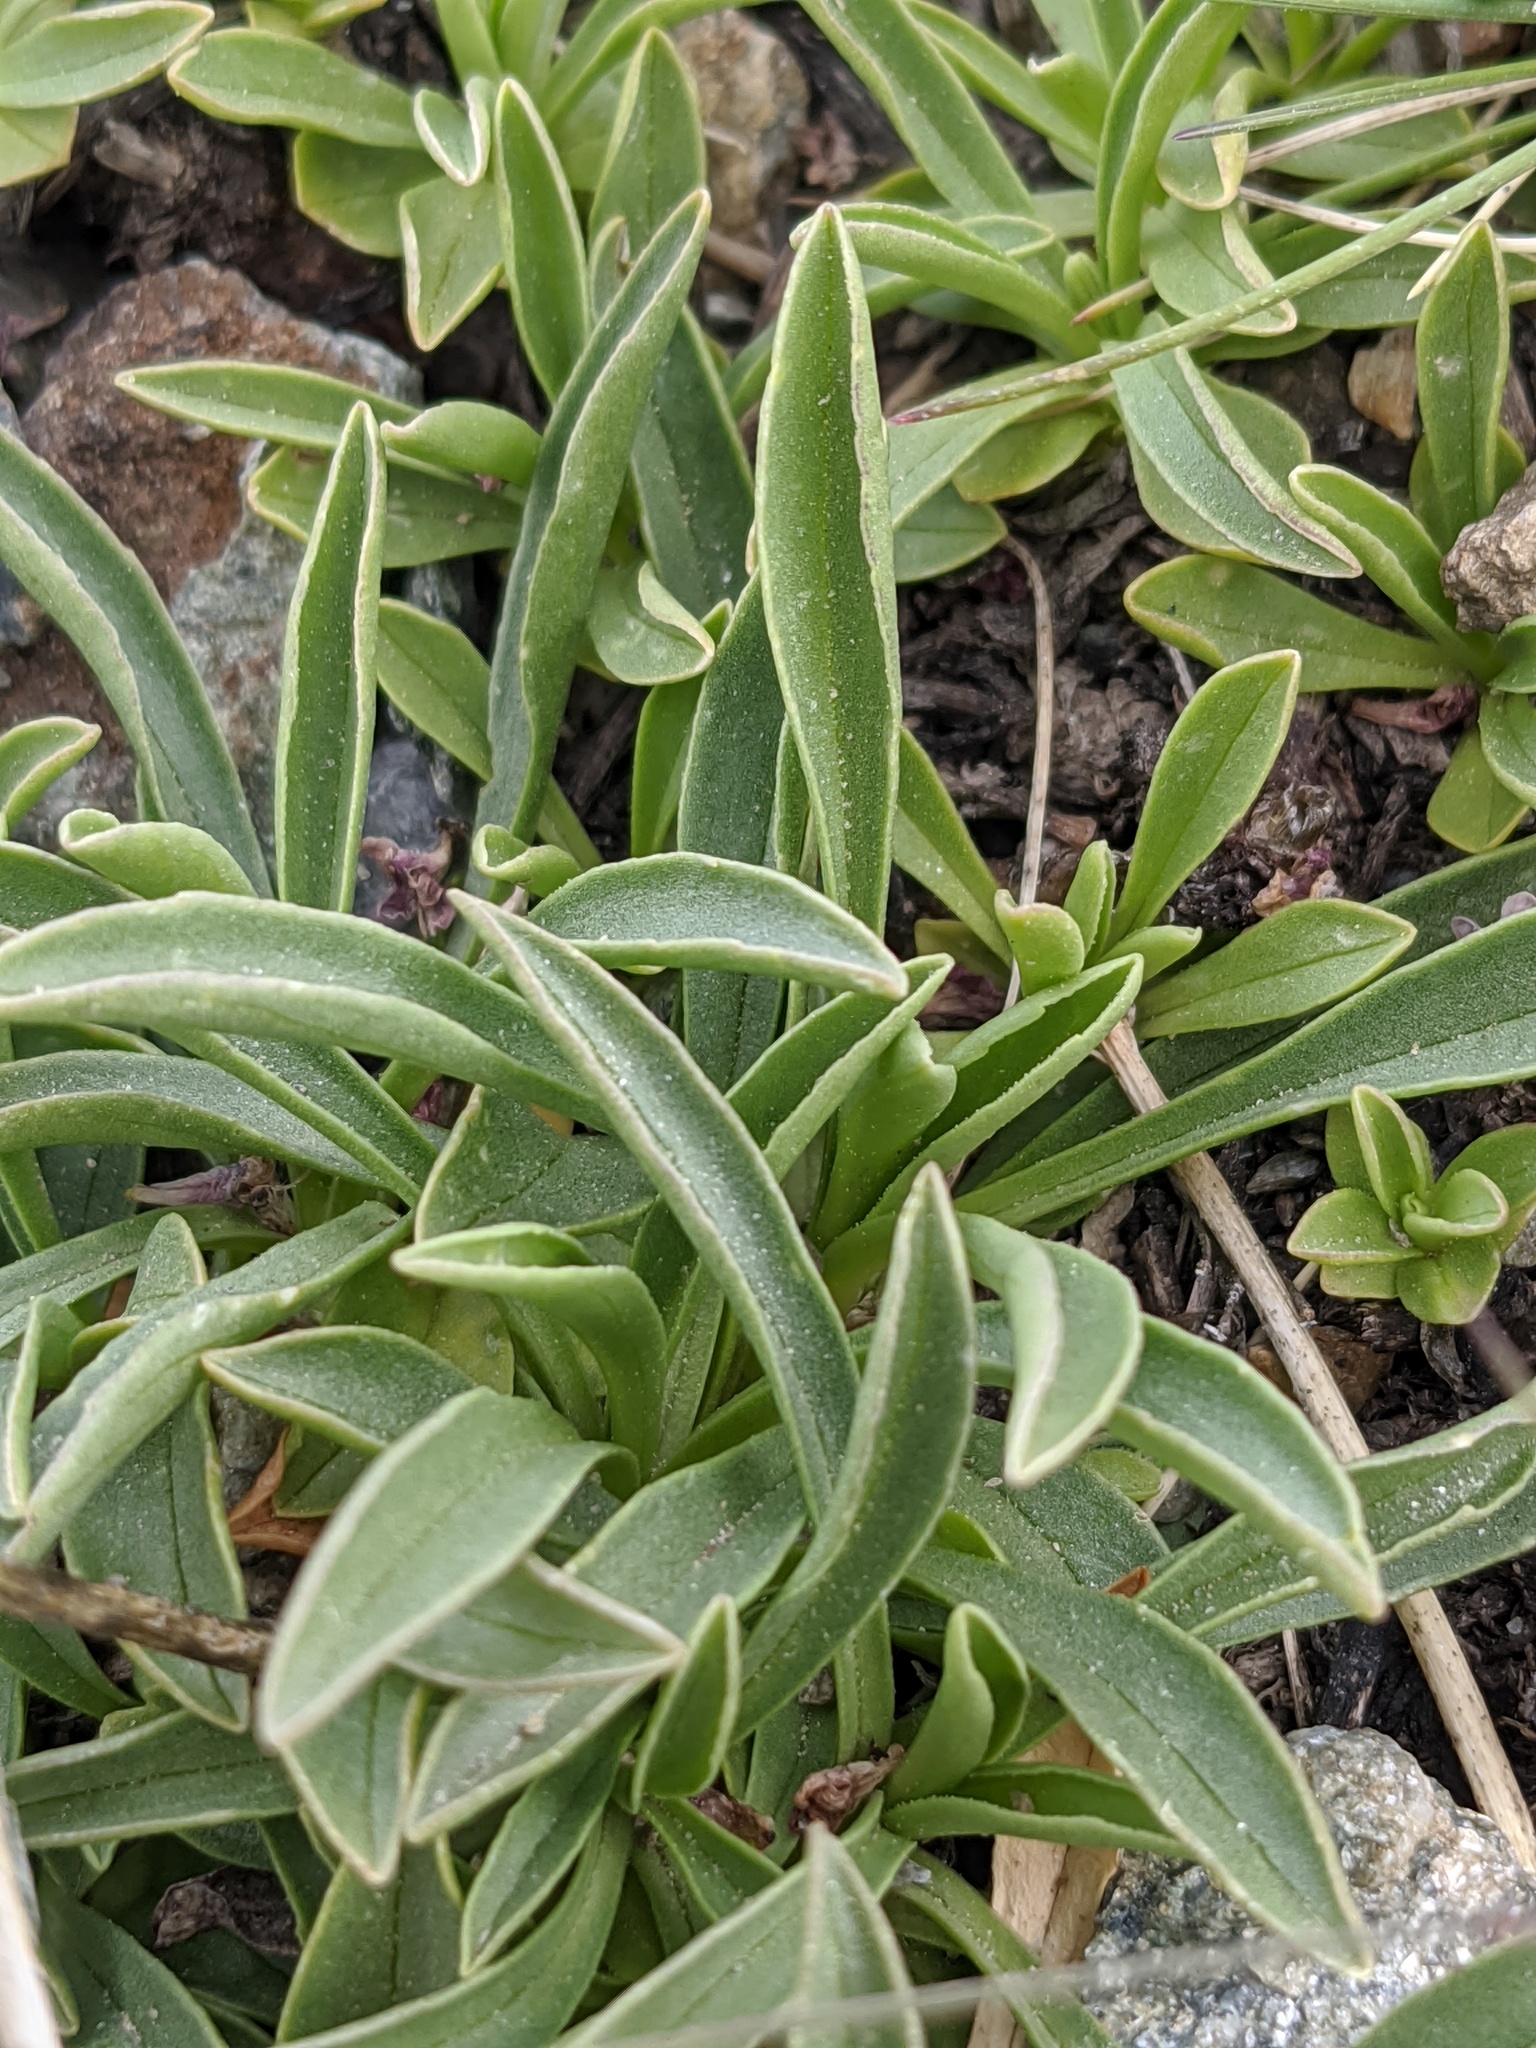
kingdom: Plantae
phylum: Tracheophyta
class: Magnoliopsida
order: Dipsacales
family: Caprifoliaceae
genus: Valeriana
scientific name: Valeriana saliunca
